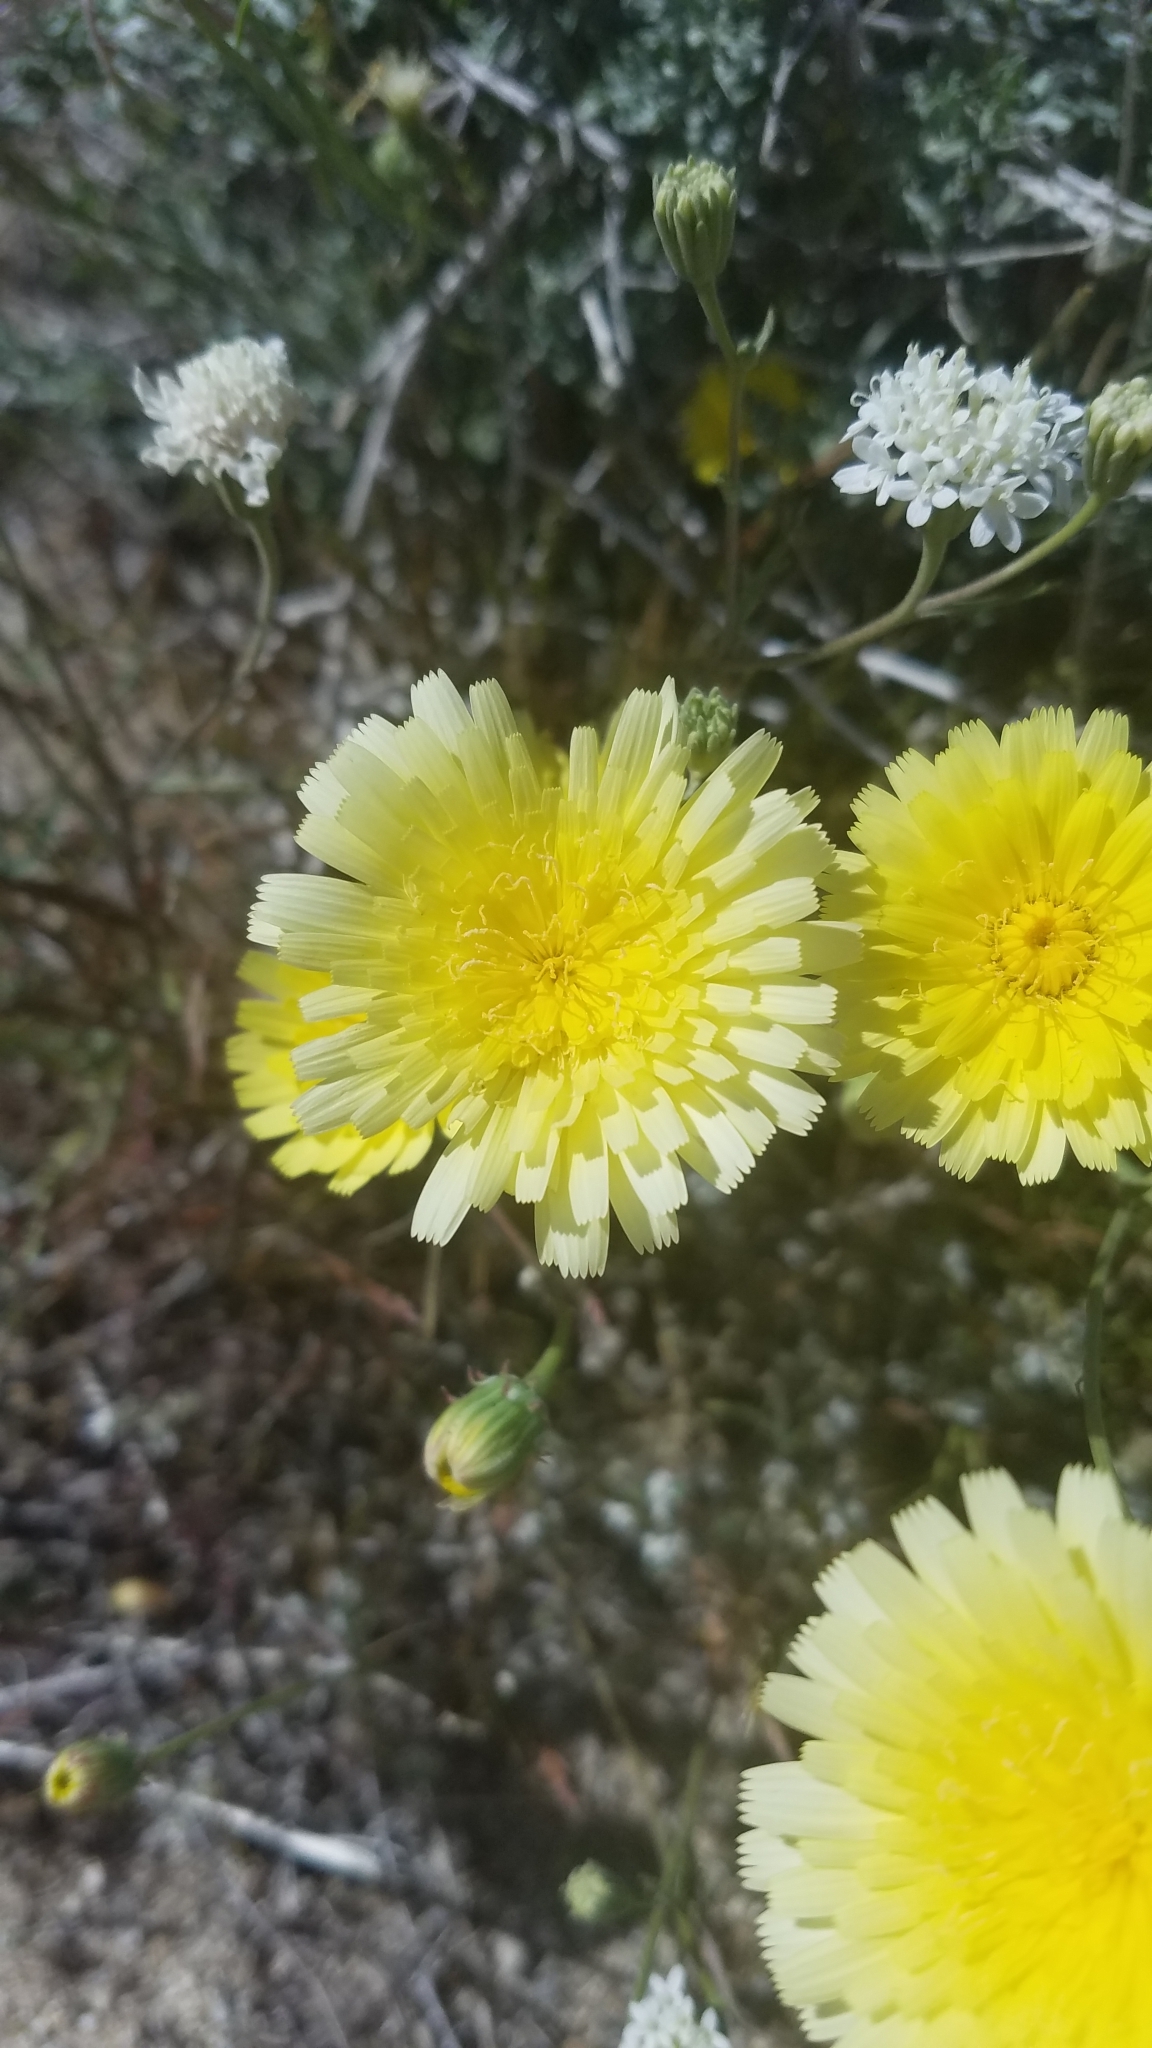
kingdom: Plantae
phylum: Tracheophyta
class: Magnoliopsida
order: Asterales
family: Asteraceae
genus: Malacothrix
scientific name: Malacothrix glabrata
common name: Smooth desert-dandelion
